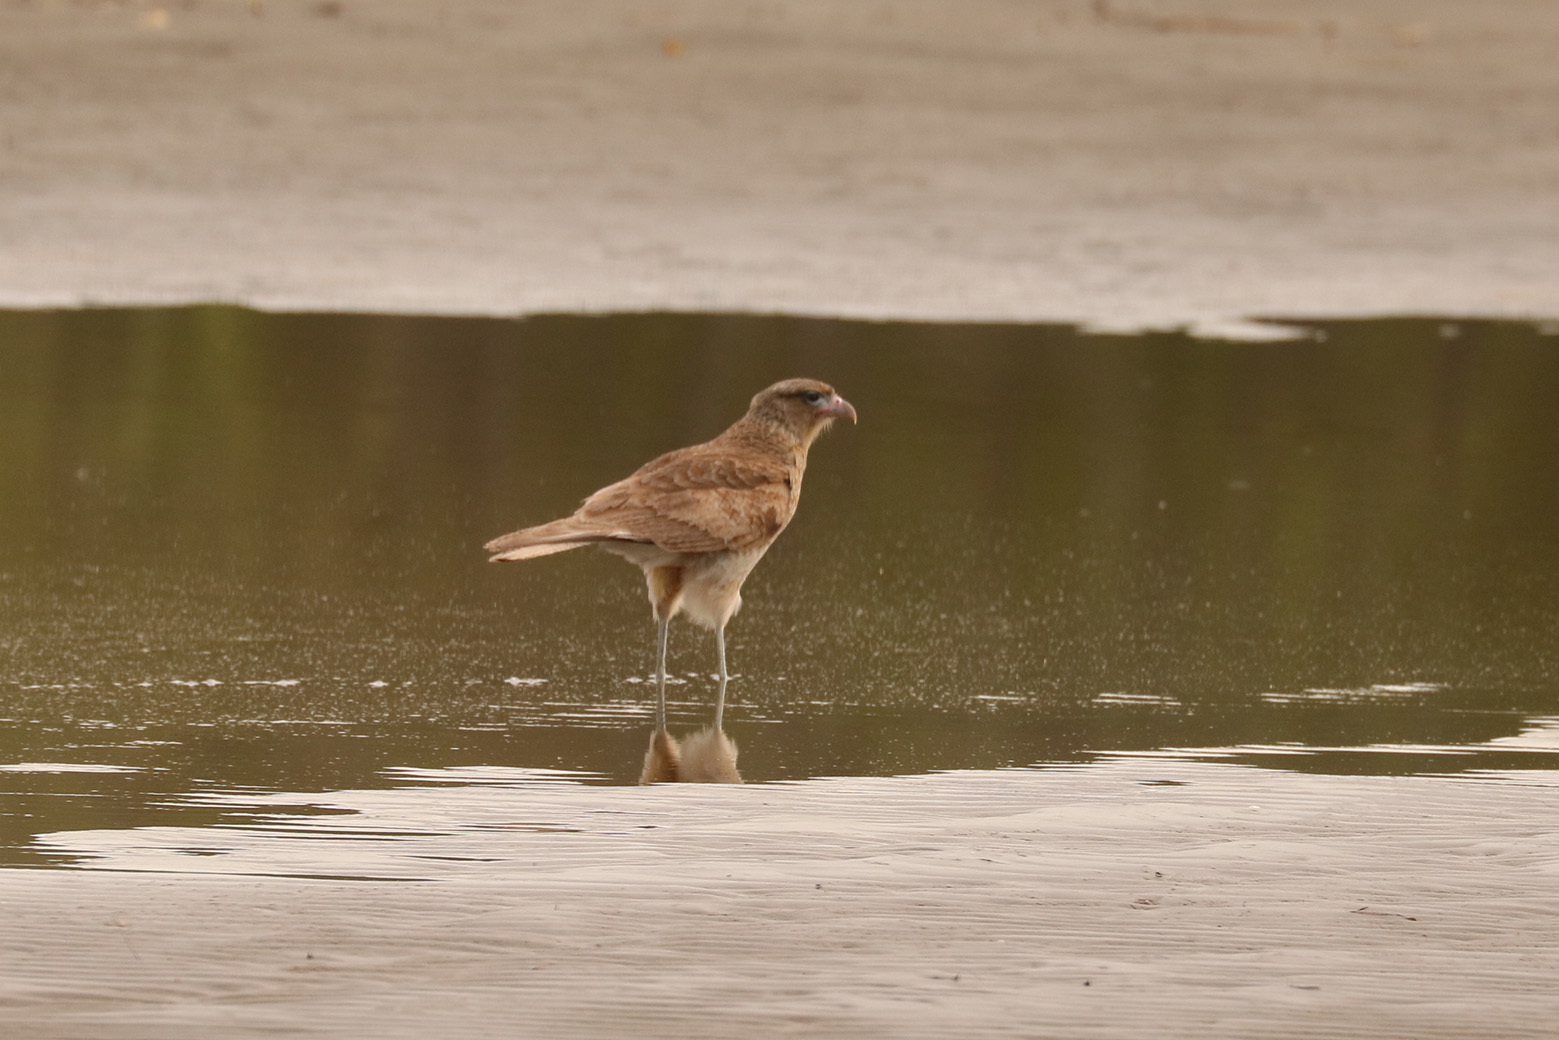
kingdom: Animalia
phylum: Chordata
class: Aves
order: Falconiformes
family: Falconidae
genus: Daptrius
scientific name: Daptrius
